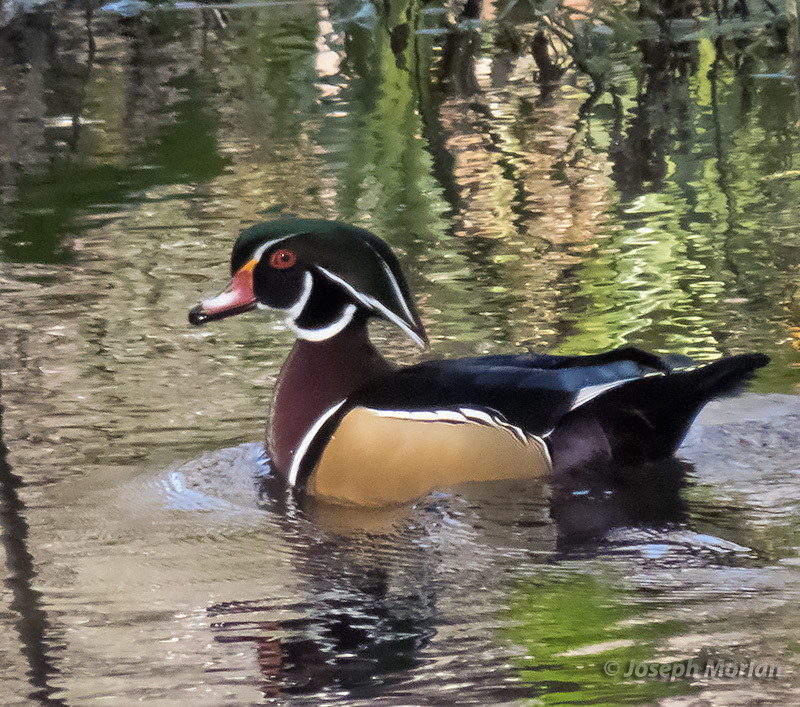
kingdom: Animalia
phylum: Chordata
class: Aves
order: Anseriformes
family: Anatidae
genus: Aix
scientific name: Aix sponsa
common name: Wood duck
